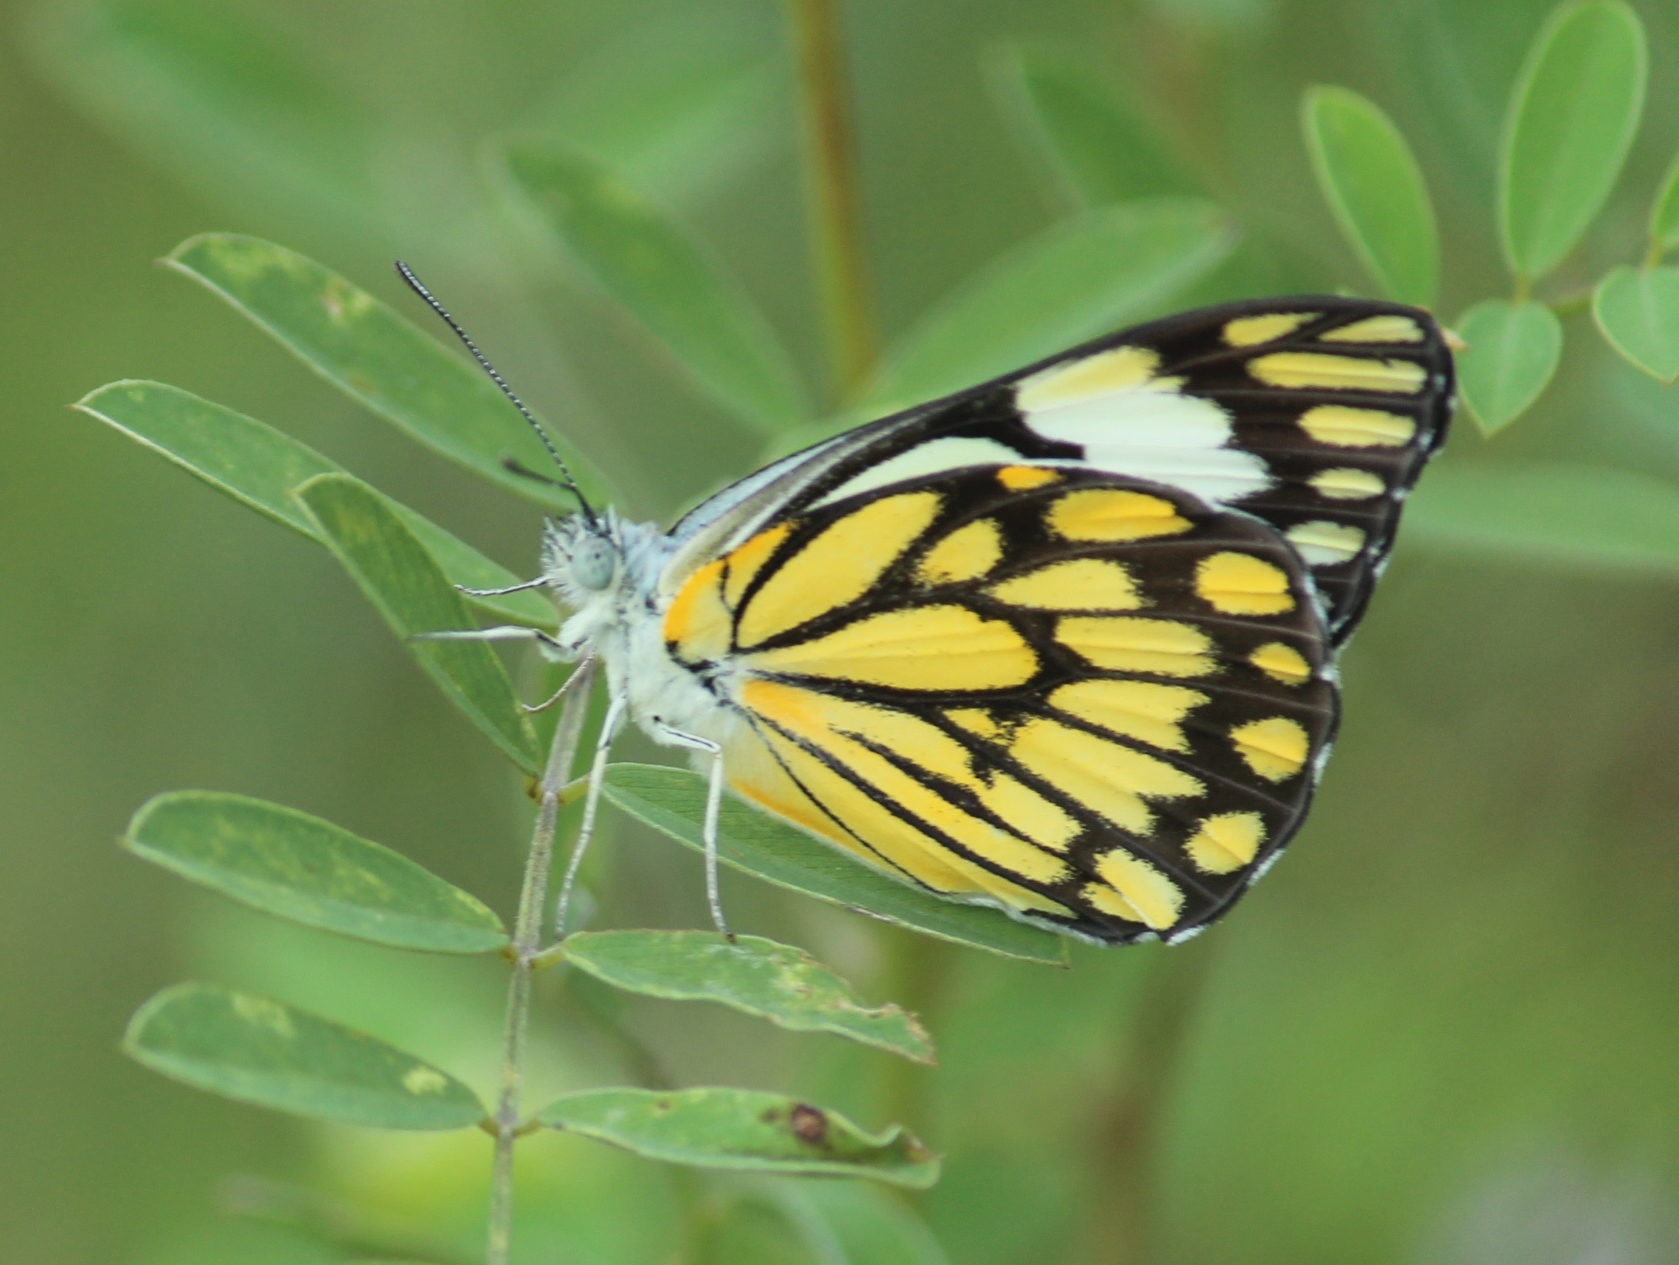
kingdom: Animalia
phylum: Arthropoda
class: Insecta
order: Lepidoptera
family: Pieridae
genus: Belenois
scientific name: Belenois aurota
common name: Brown-veined white
